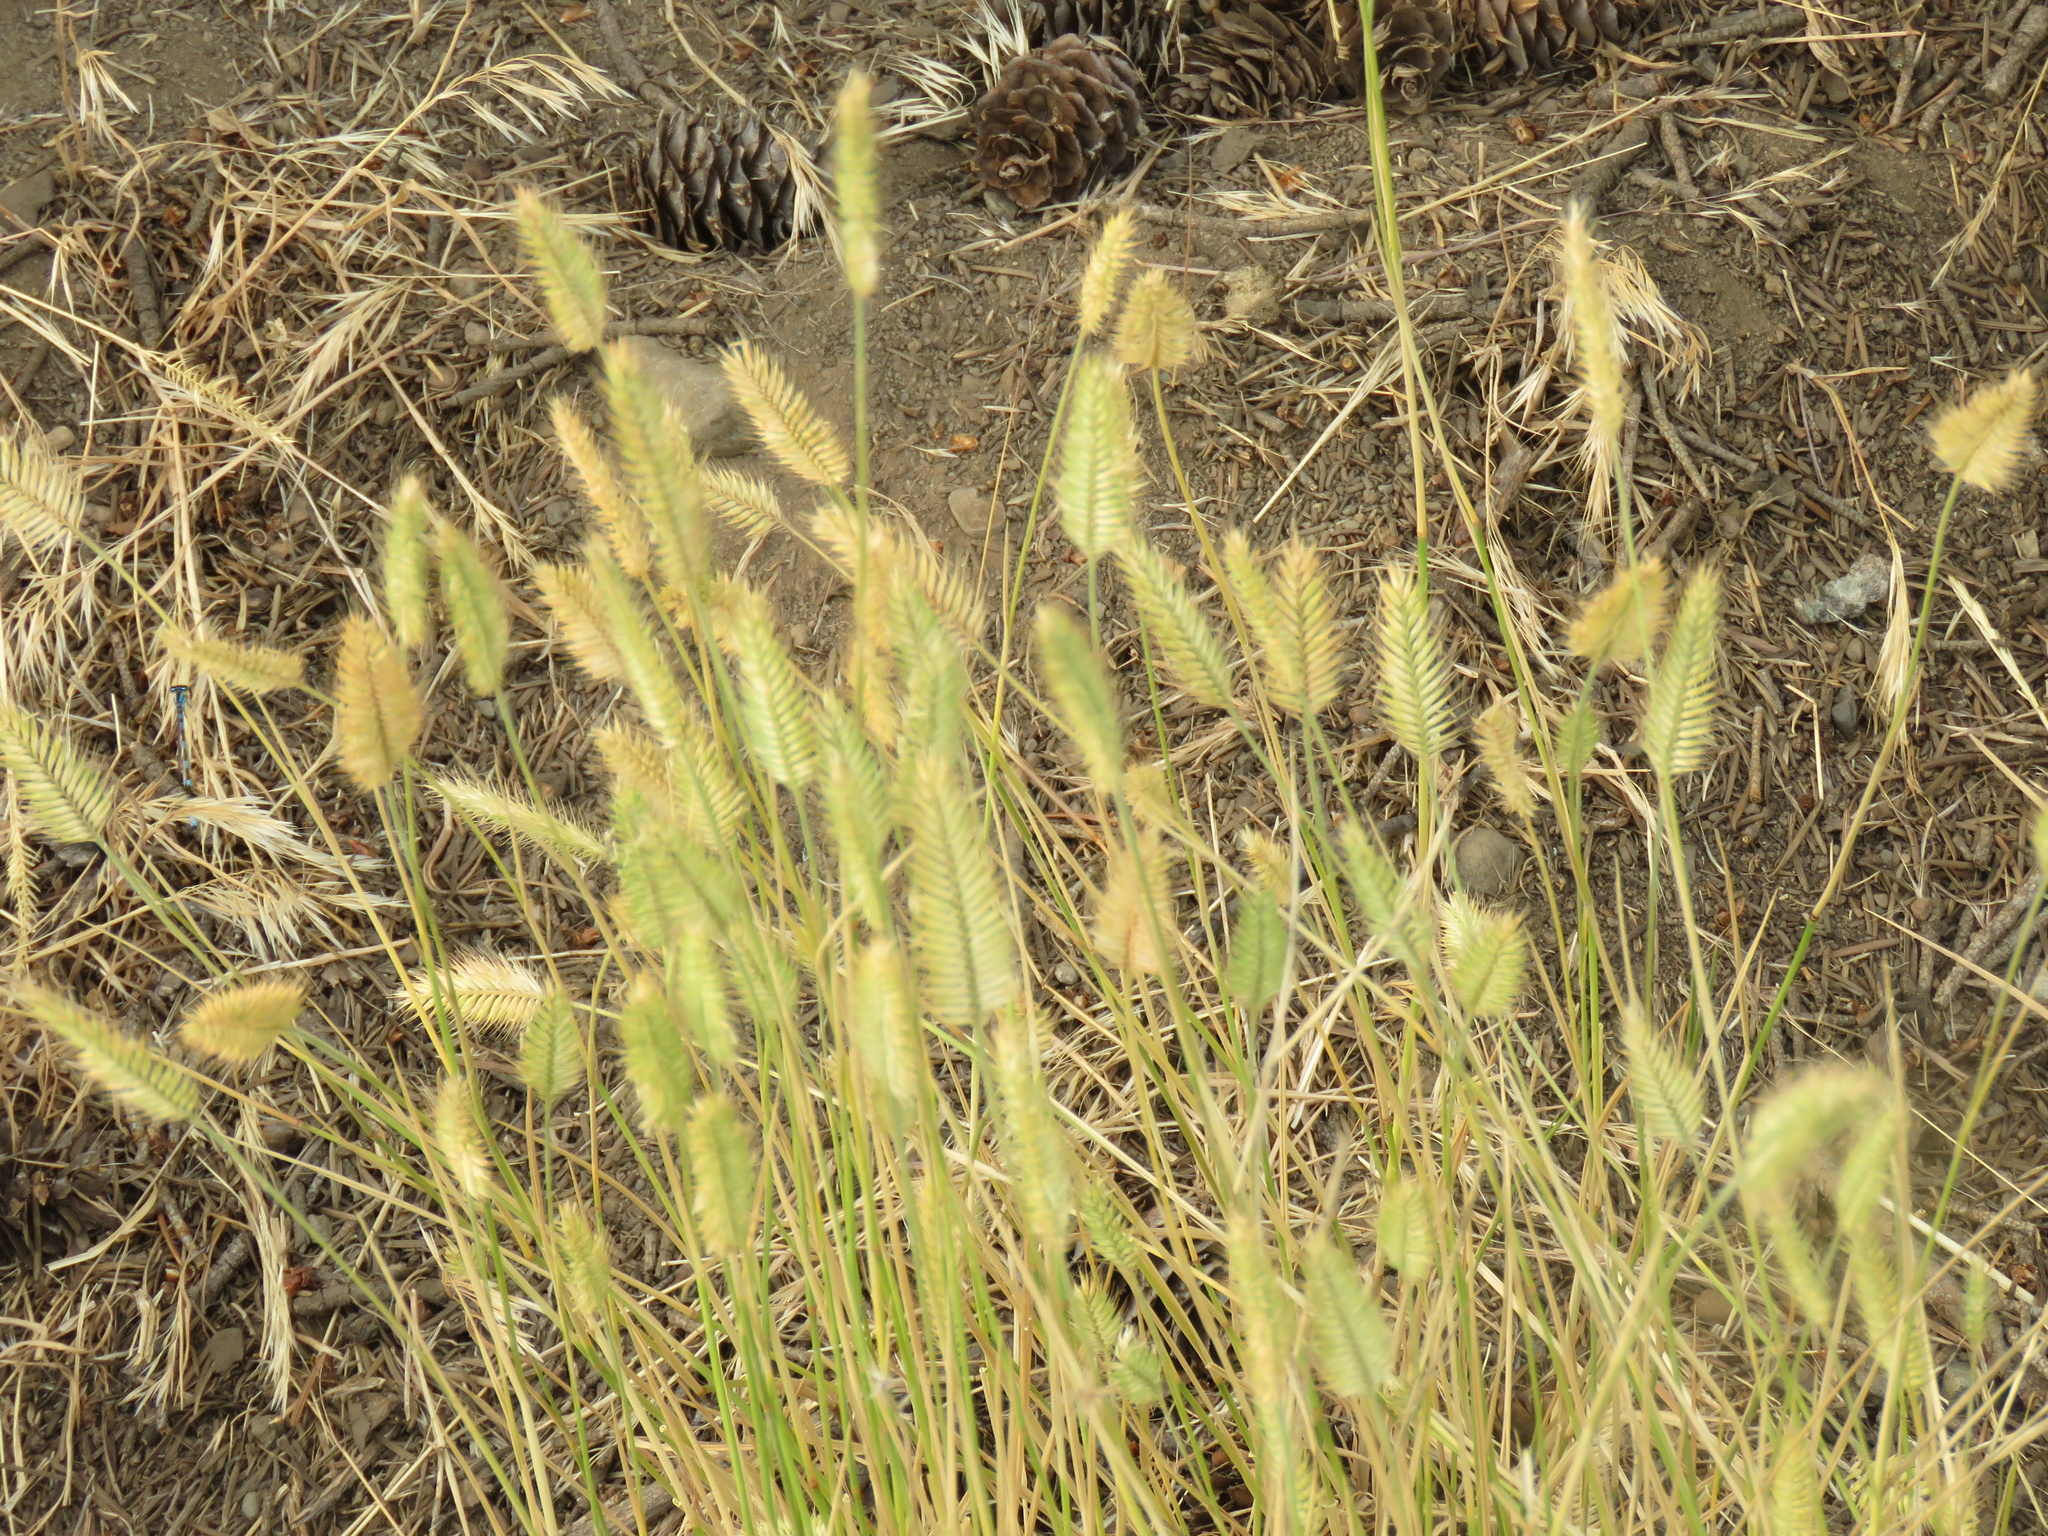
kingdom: Plantae
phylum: Tracheophyta
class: Liliopsida
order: Poales
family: Poaceae
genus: Agropyron
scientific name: Agropyron cristatum
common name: Crested wheatgrass
